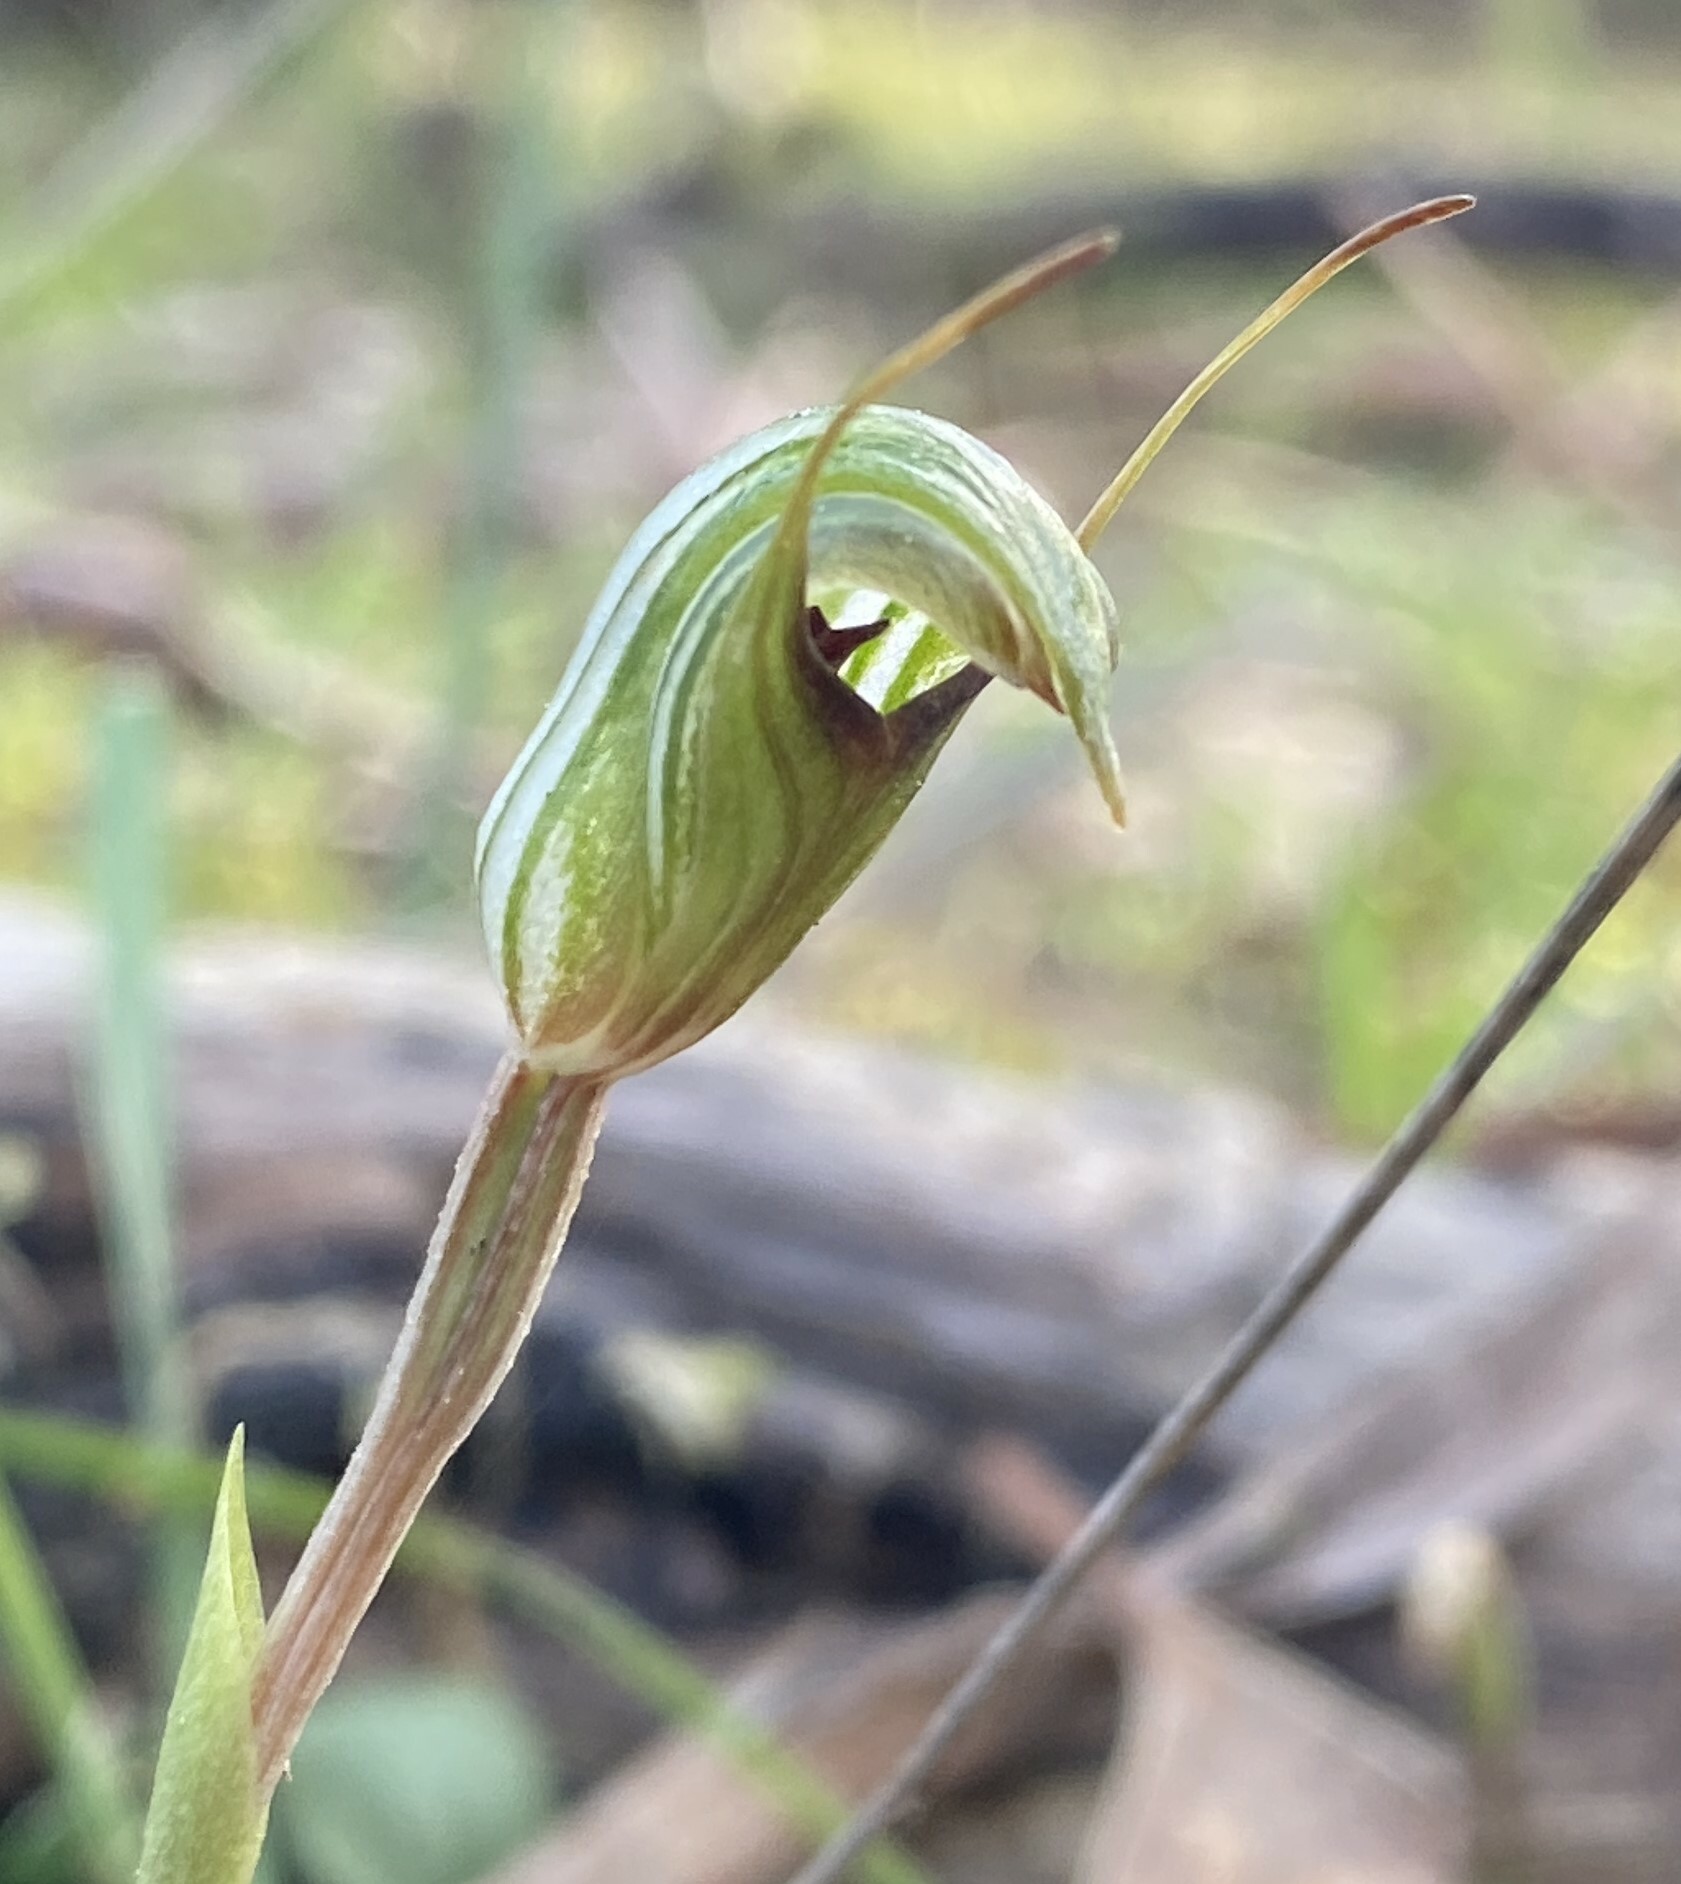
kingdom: Plantae
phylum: Tracheophyta
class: Liliopsida
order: Asparagales
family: Orchidaceae
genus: Pterostylis
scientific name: Pterostylis concinna
